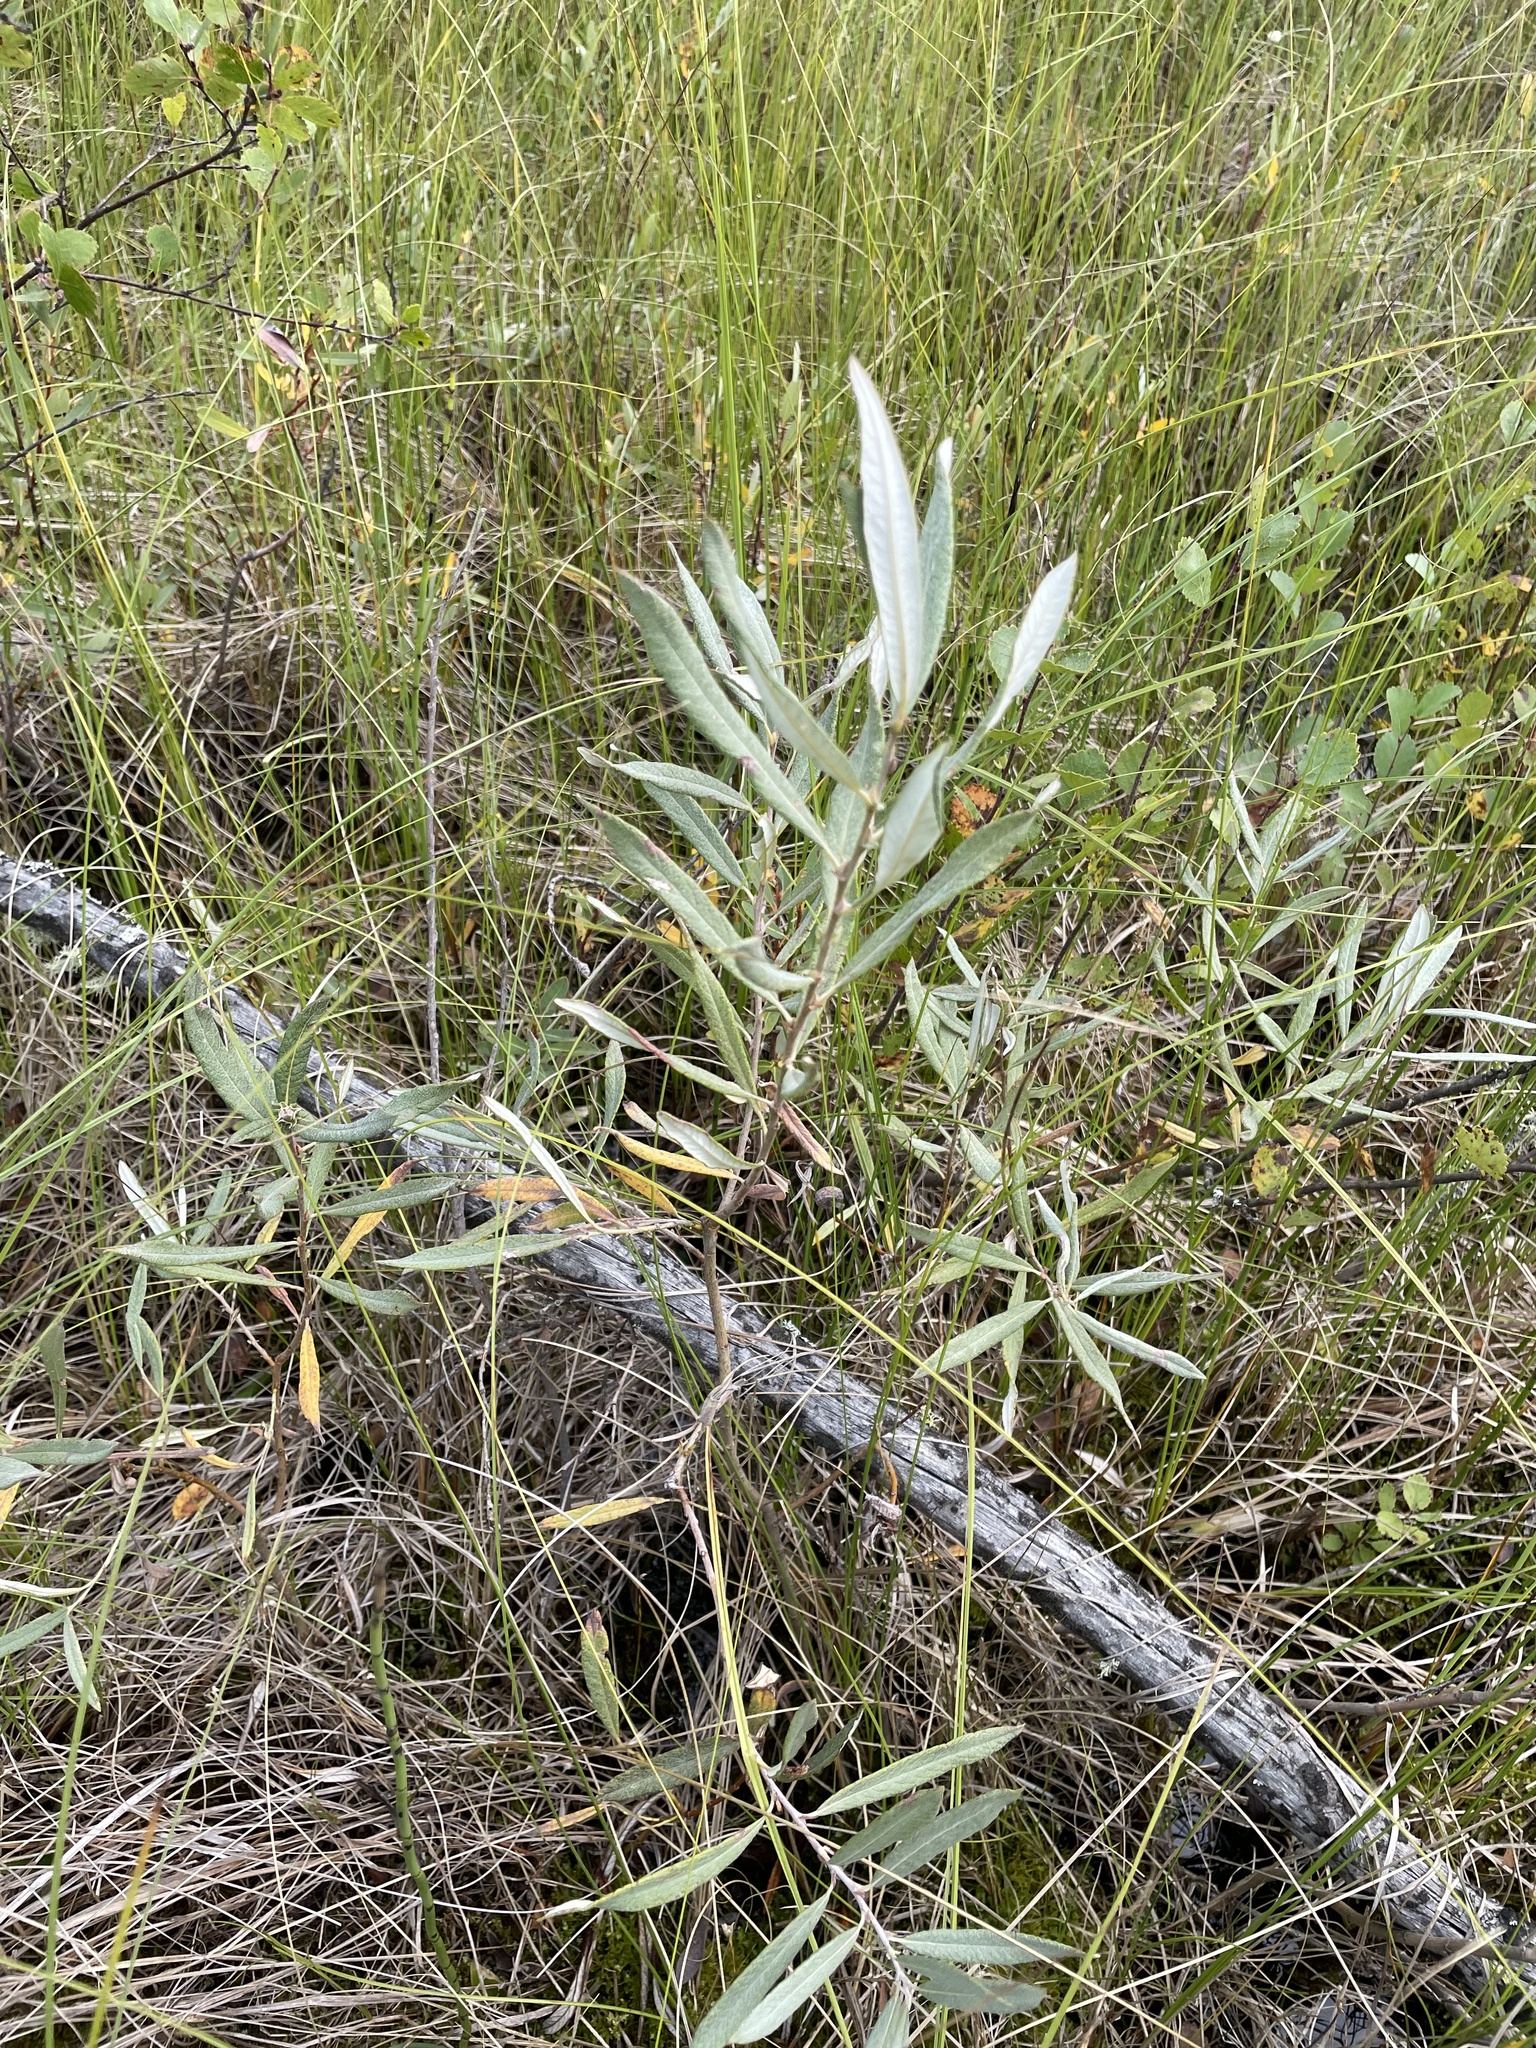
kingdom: Plantae
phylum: Tracheophyta
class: Magnoliopsida
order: Malpighiales
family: Salicaceae
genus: Salix
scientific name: Salix candida
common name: Hoary willow
